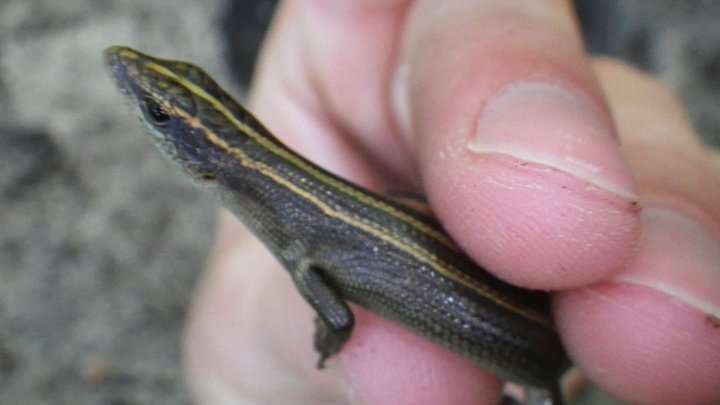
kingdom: Animalia
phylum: Chordata
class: Squamata
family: Scincidae
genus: Emoia
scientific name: Emoia caeruleocauda
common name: Pacific bluetail skink
